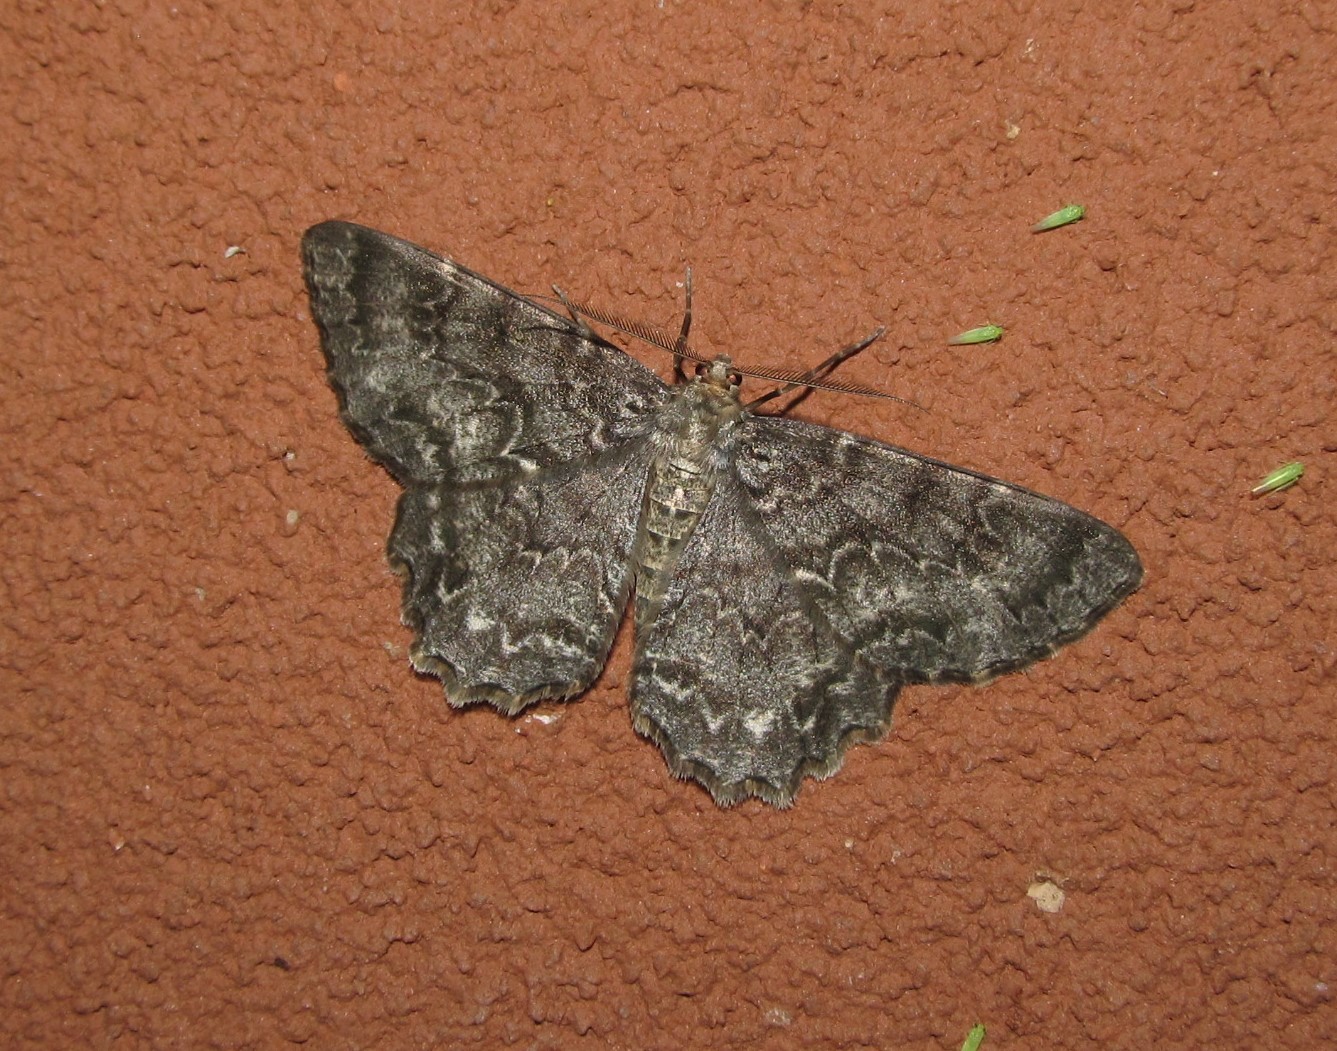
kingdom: Animalia
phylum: Arthropoda
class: Insecta
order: Lepidoptera
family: Geometridae
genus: Epimecis
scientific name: Epimecis hortaria
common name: Tulip-tree beauty
